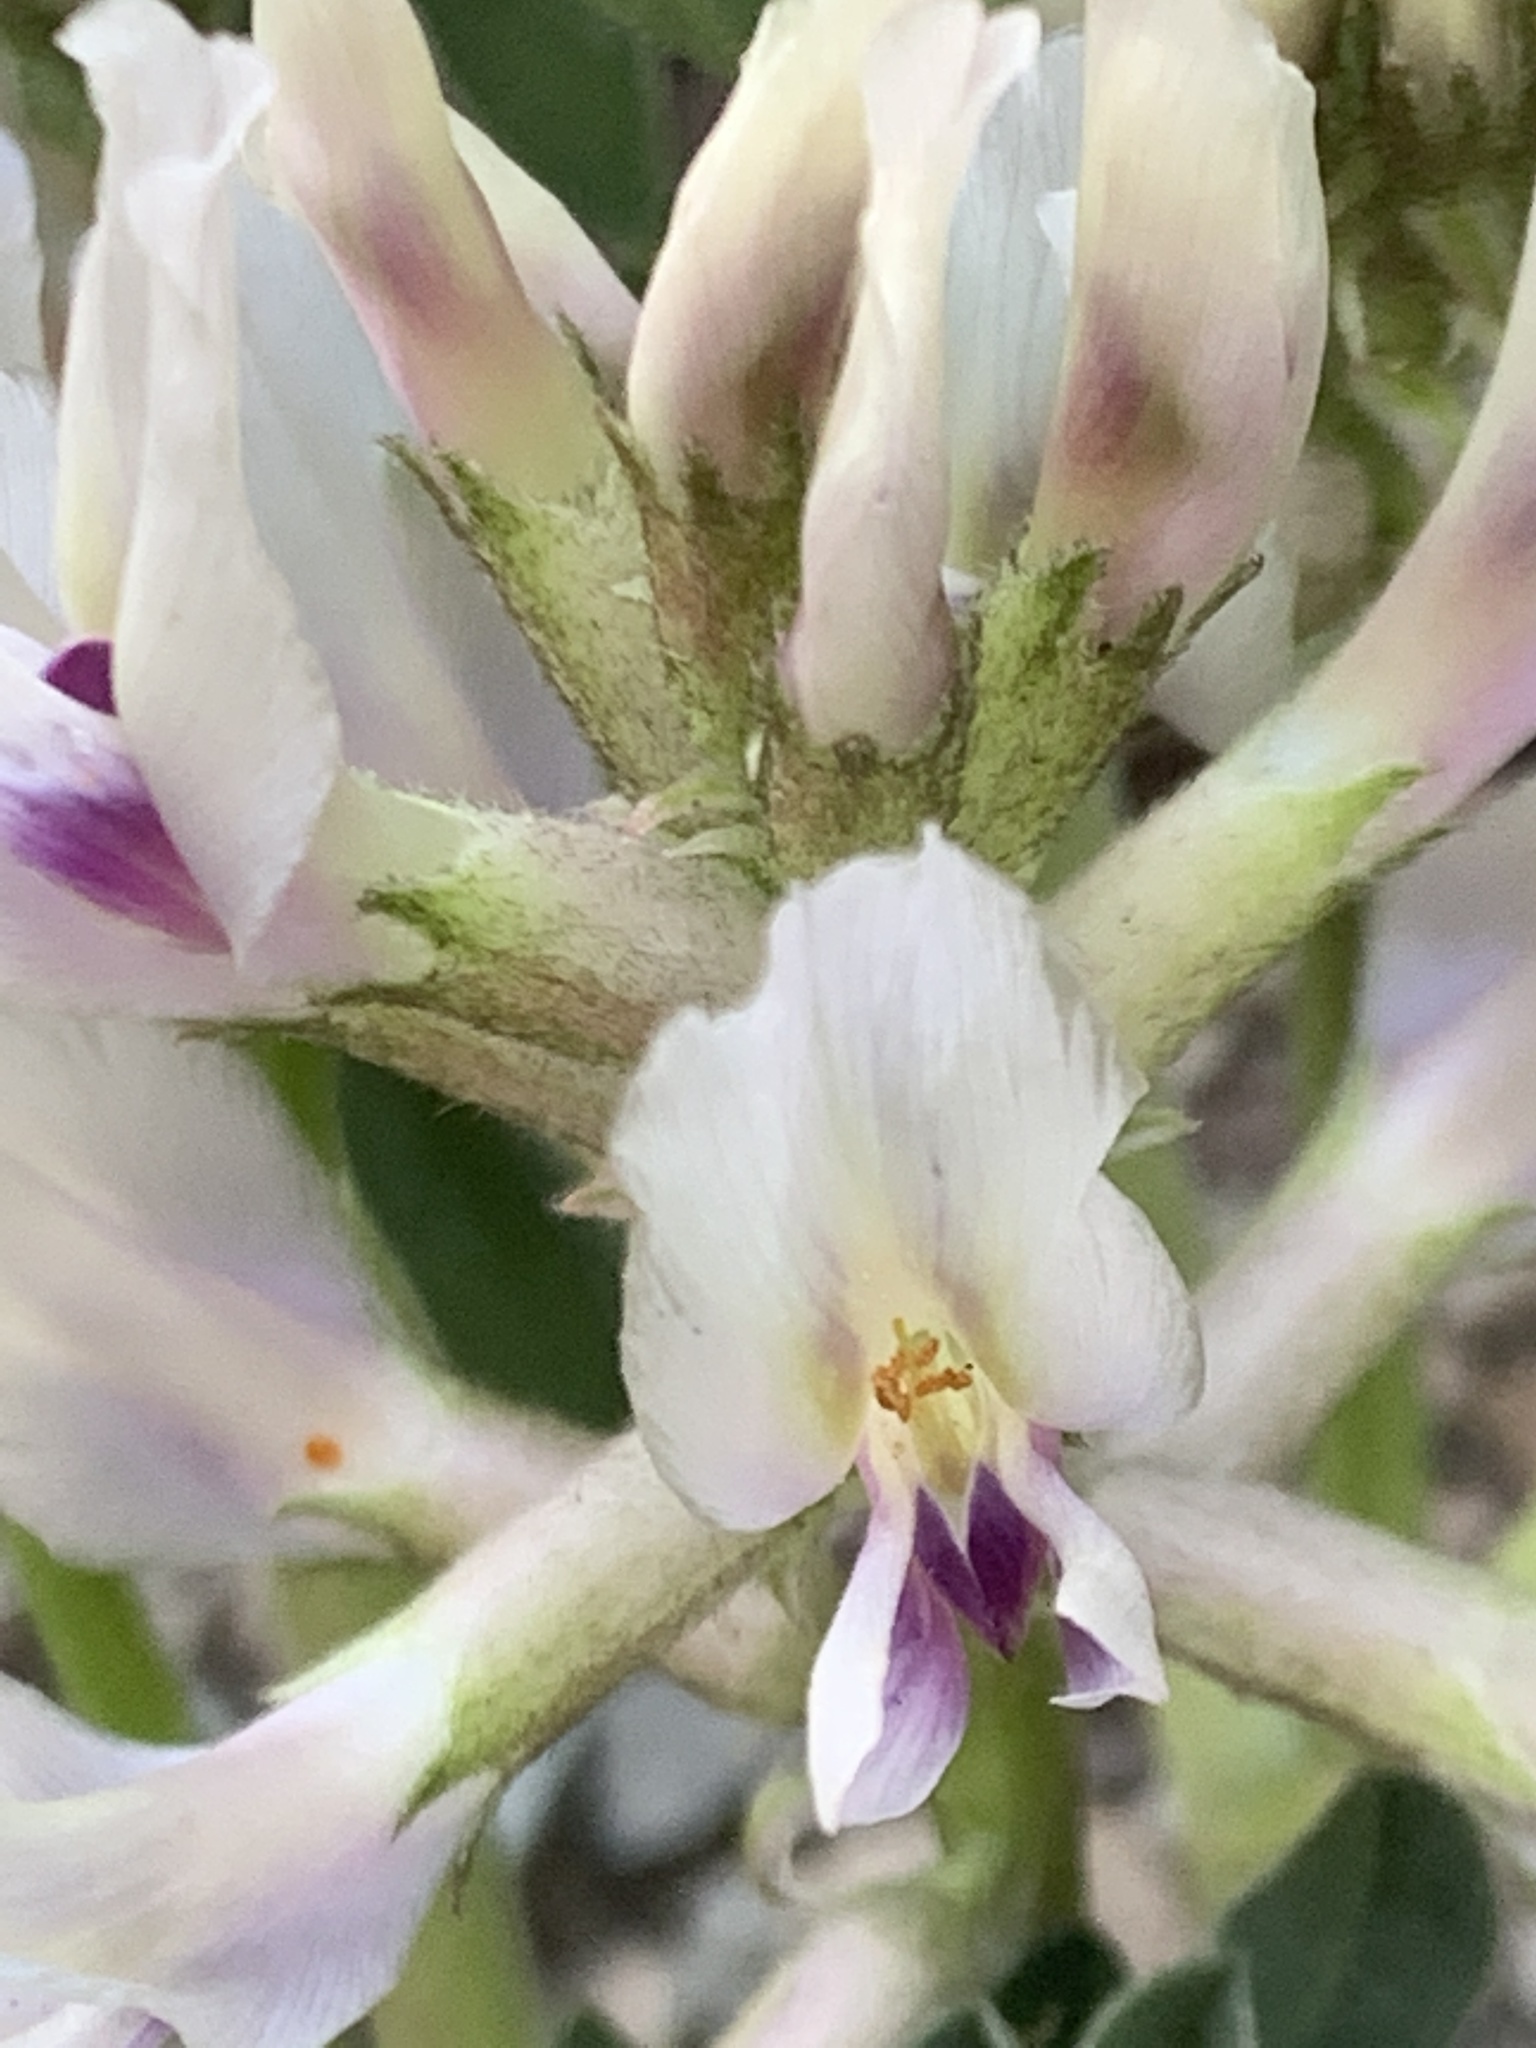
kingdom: Plantae
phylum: Tracheophyta
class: Magnoliopsida
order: Fabales
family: Fabaceae
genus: Astragalus
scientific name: Astragalus crassicarpus
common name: Ground-plum milk-vetch
